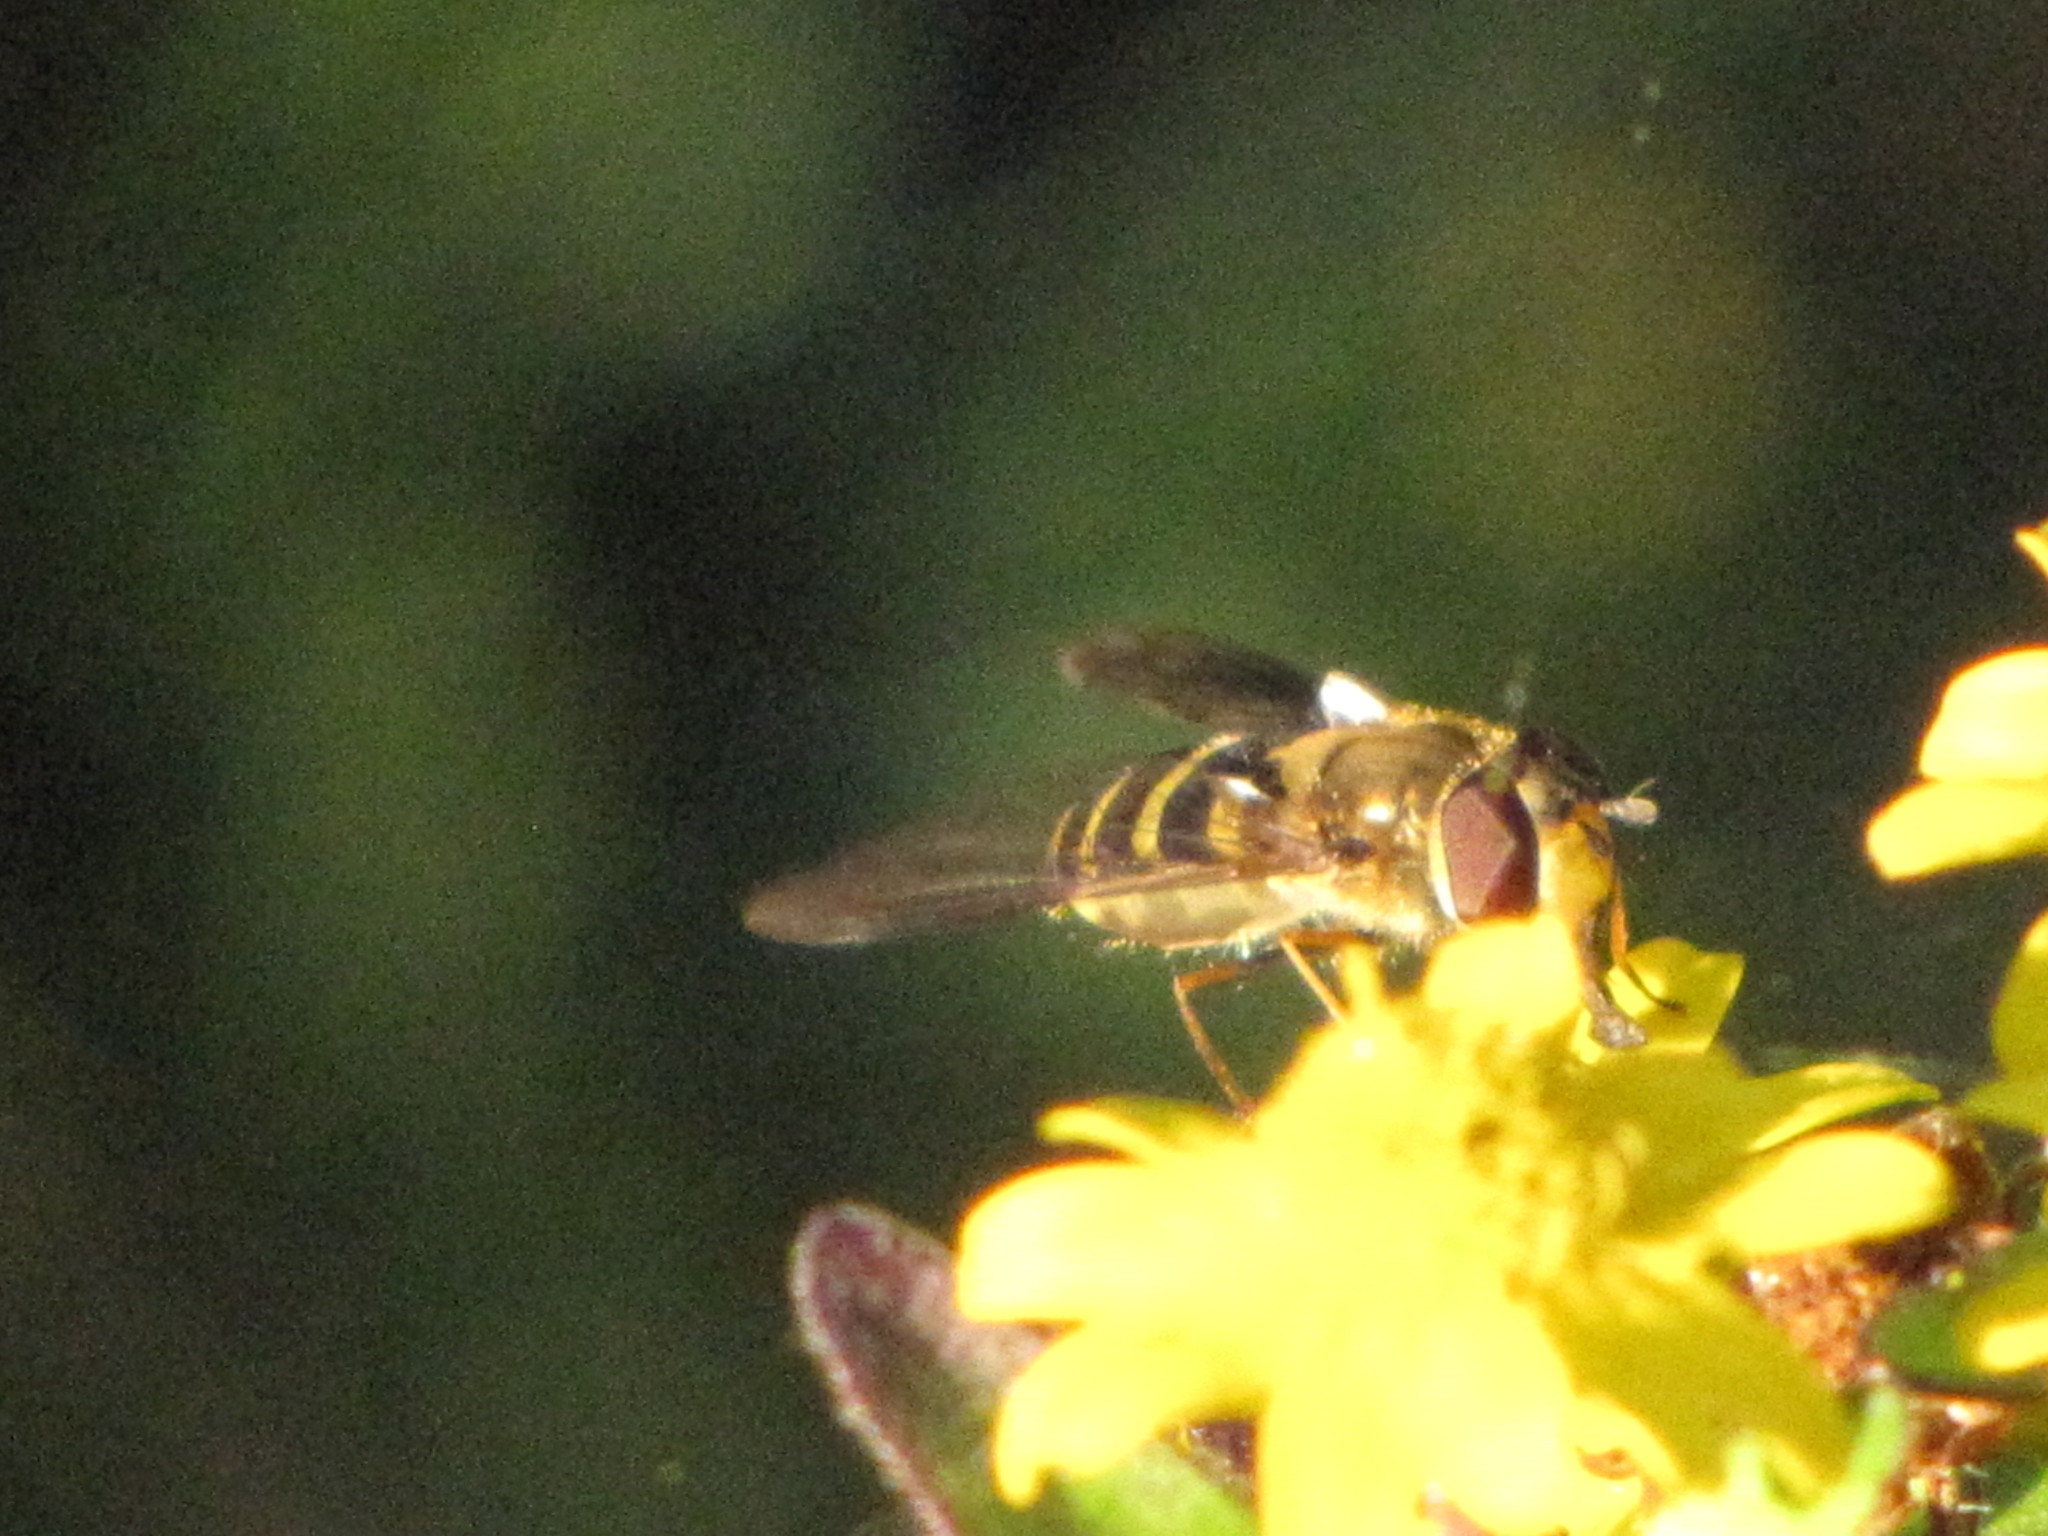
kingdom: Animalia
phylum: Arthropoda
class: Insecta
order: Diptera
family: Syrphidae
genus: Syrphus
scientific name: Syrphus
